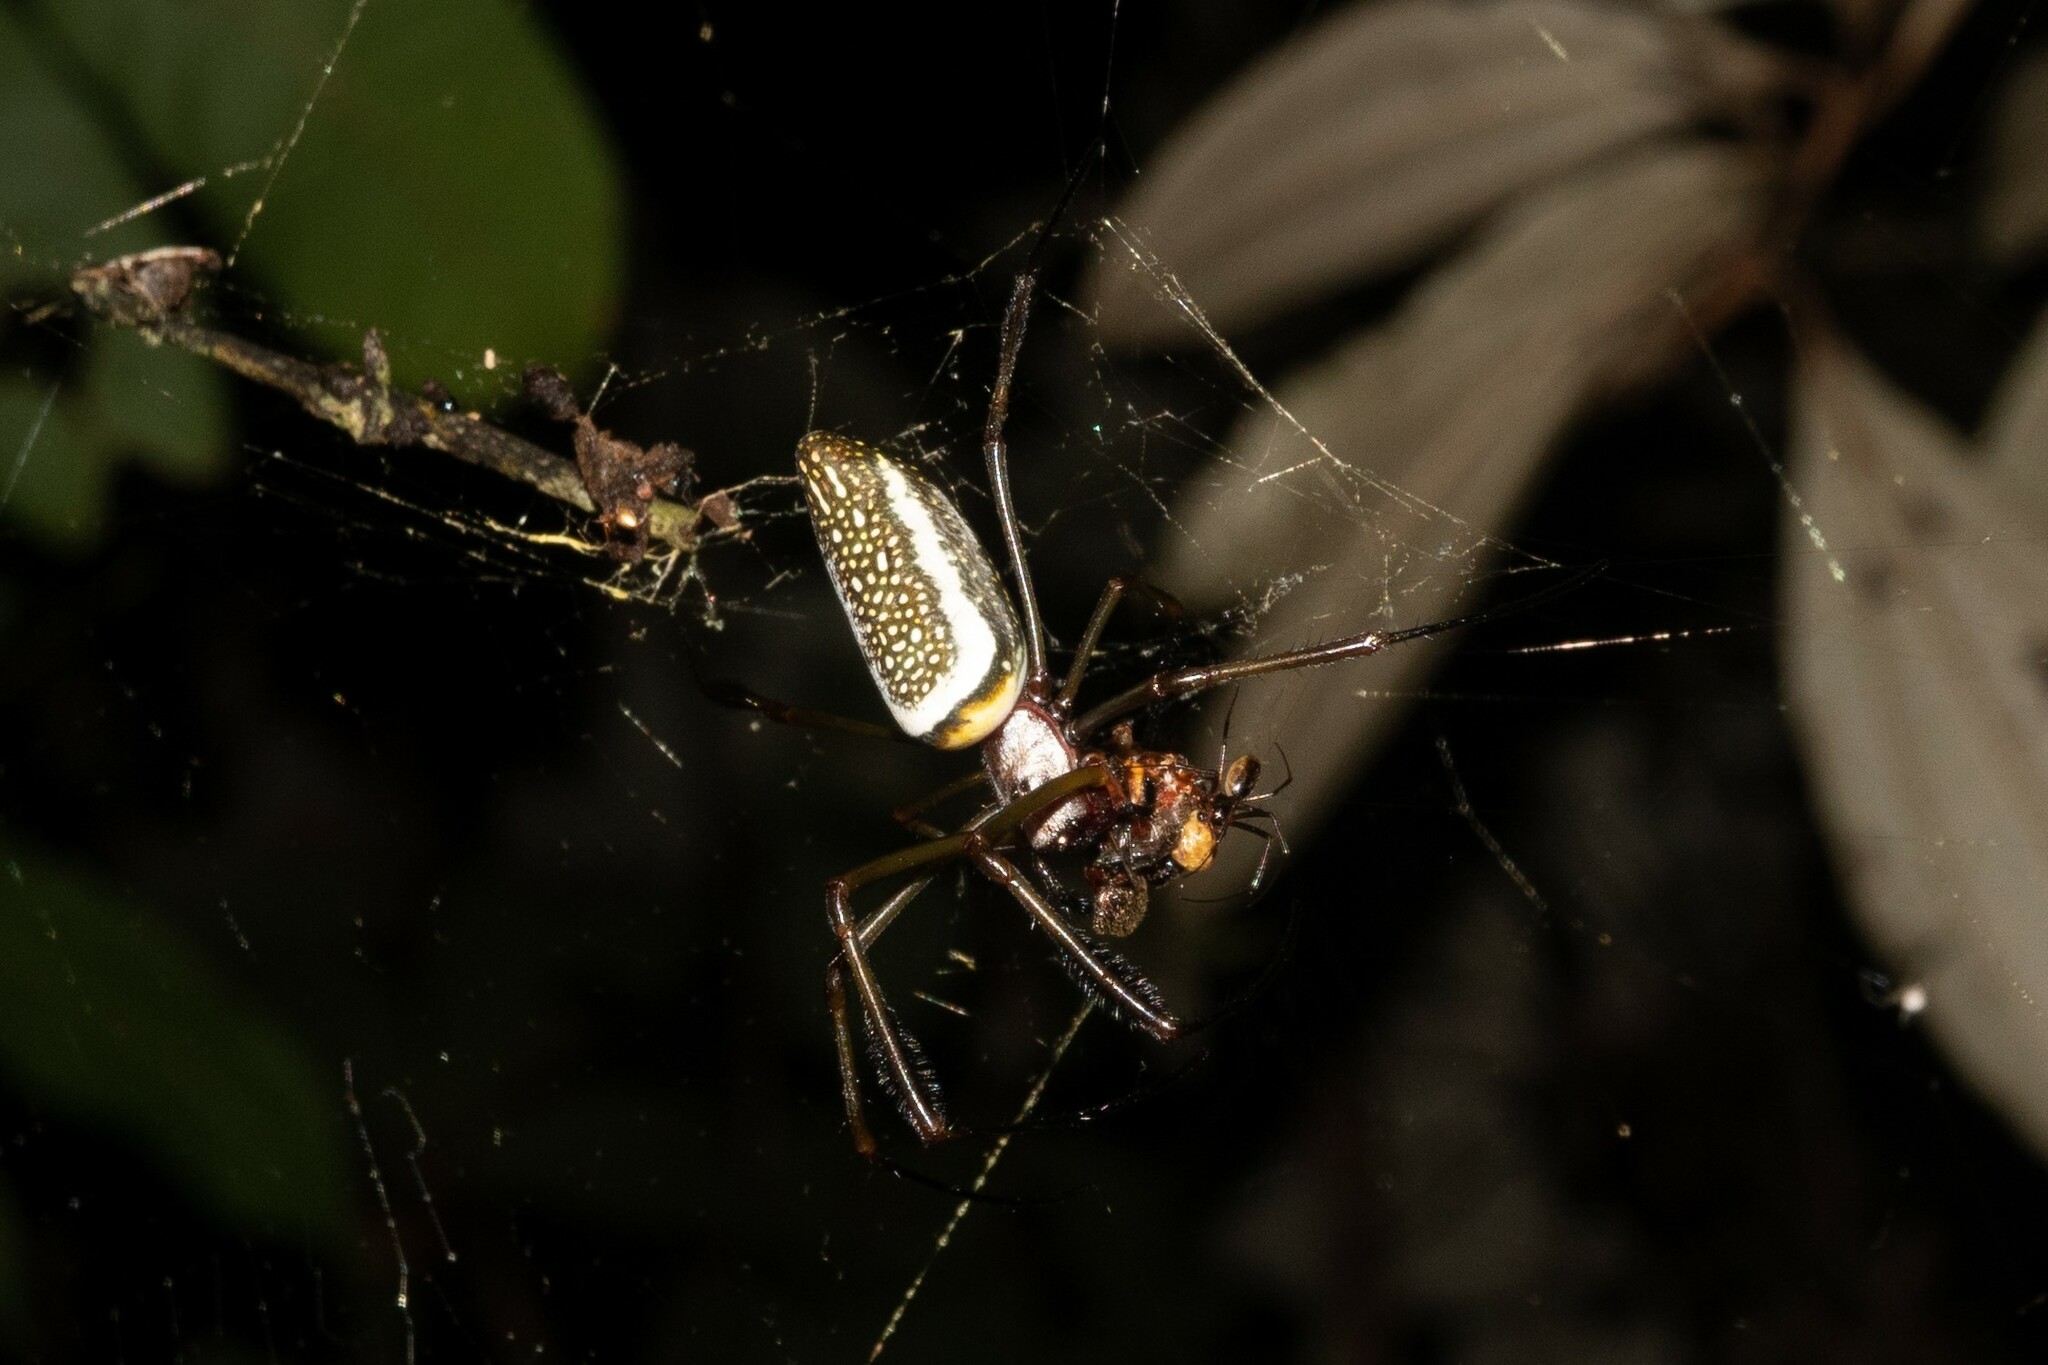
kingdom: Animalia
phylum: Arthropoda
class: Arachnida
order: Araneae
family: Araneidae
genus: Trichonephila
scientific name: Trichonephila clavipes
